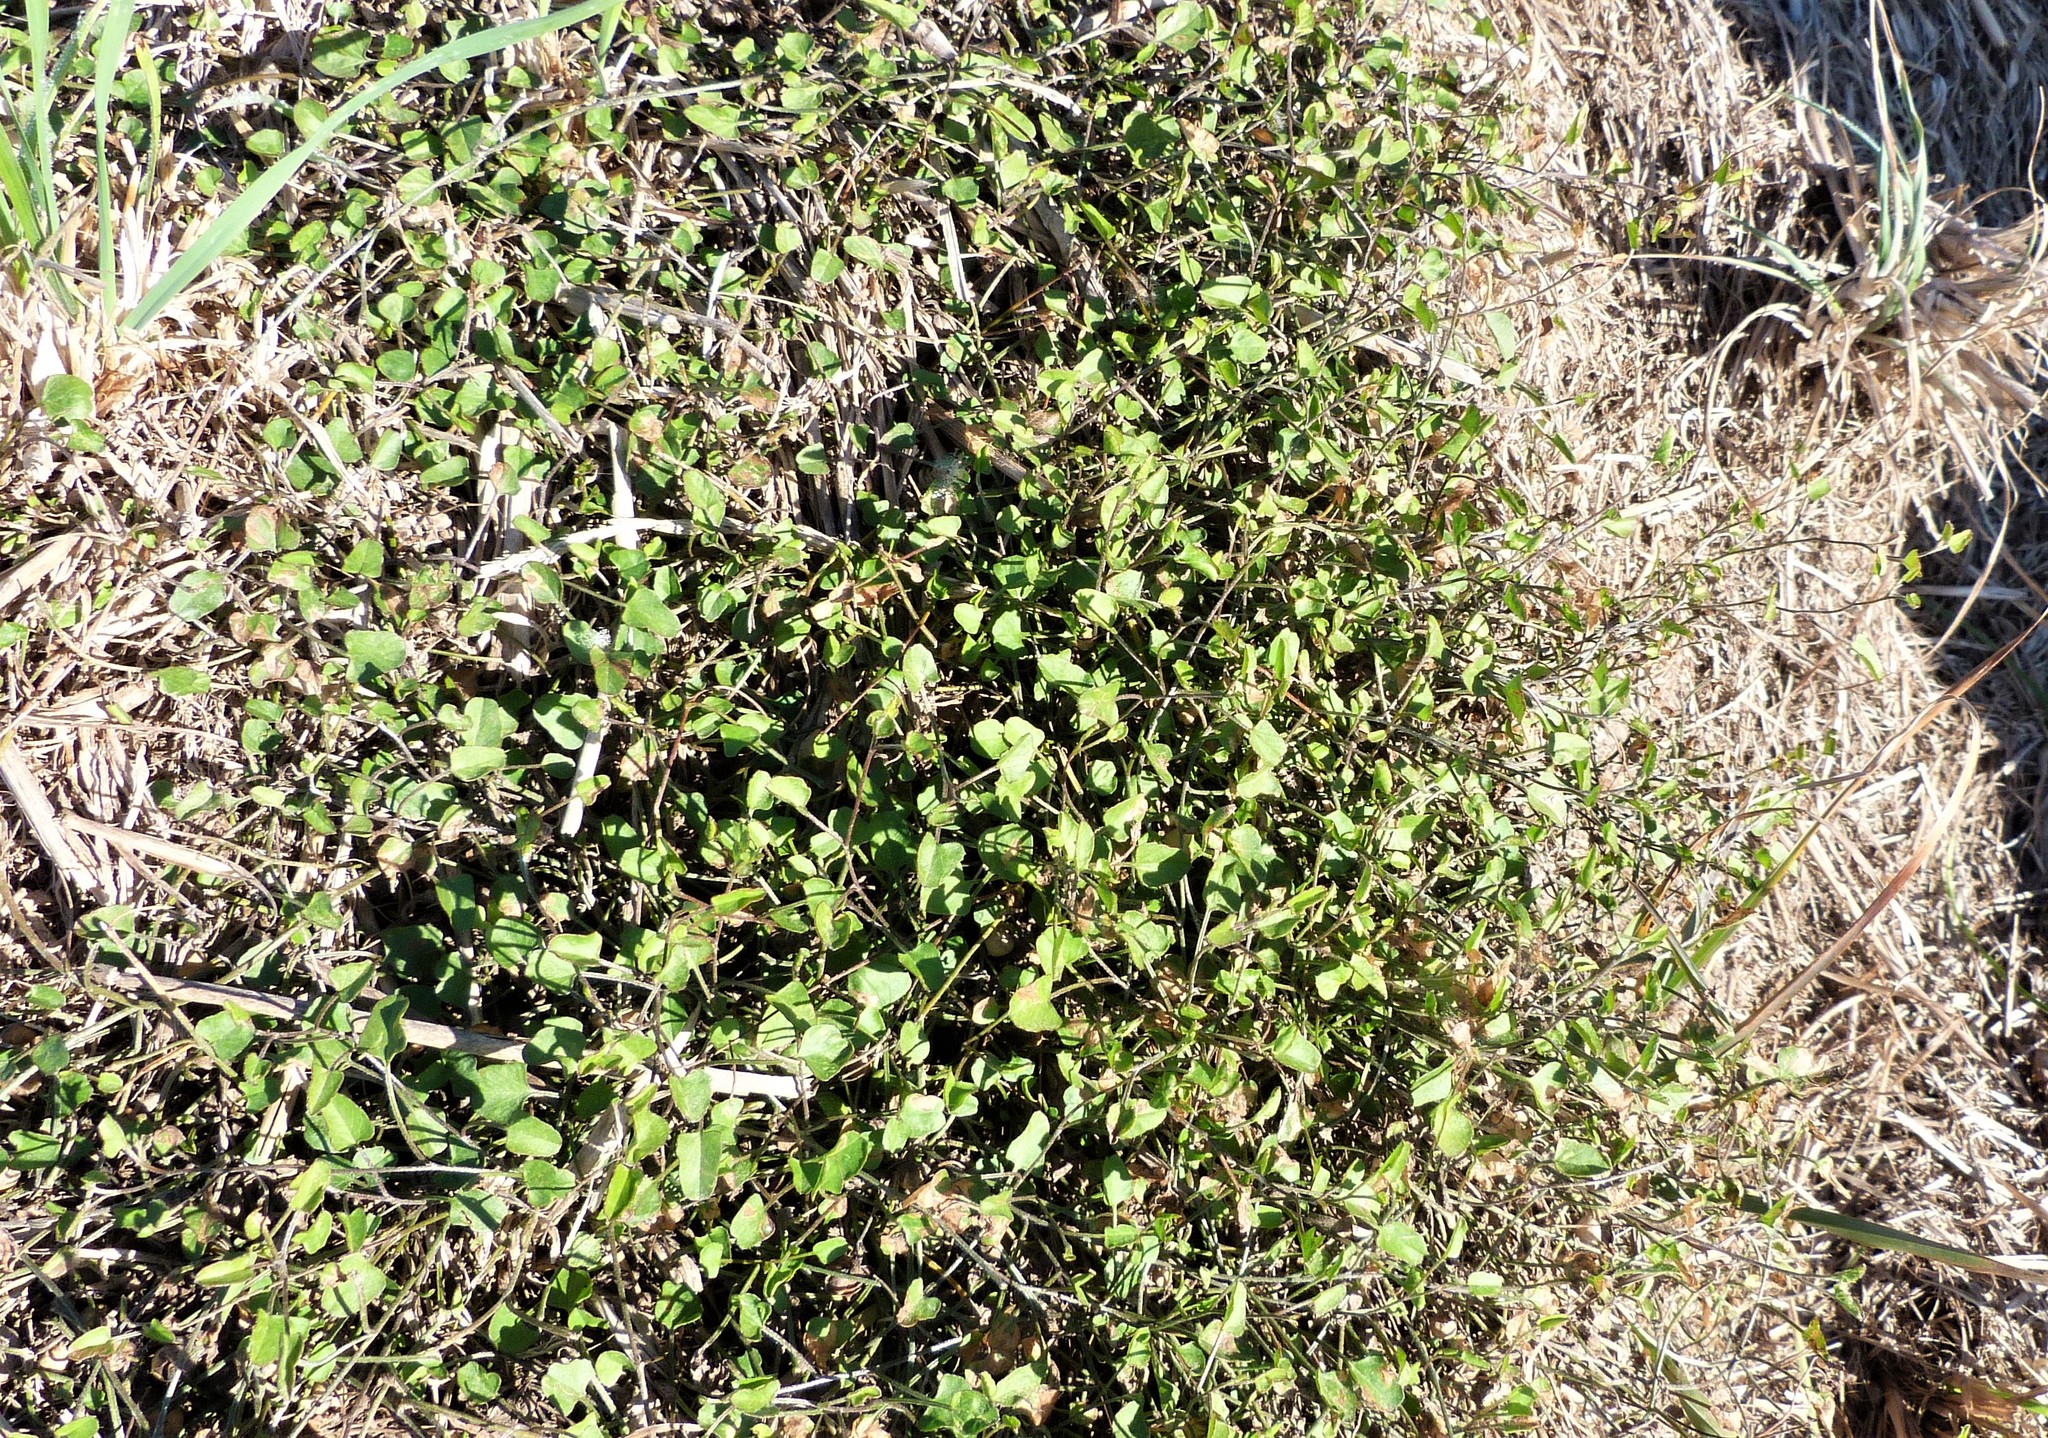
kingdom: Plantae
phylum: Tracheophyta
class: Magnoliopsida
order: Solanales
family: Convolvulaceae
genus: Convolvulus
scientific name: Convolvulus waitaha
